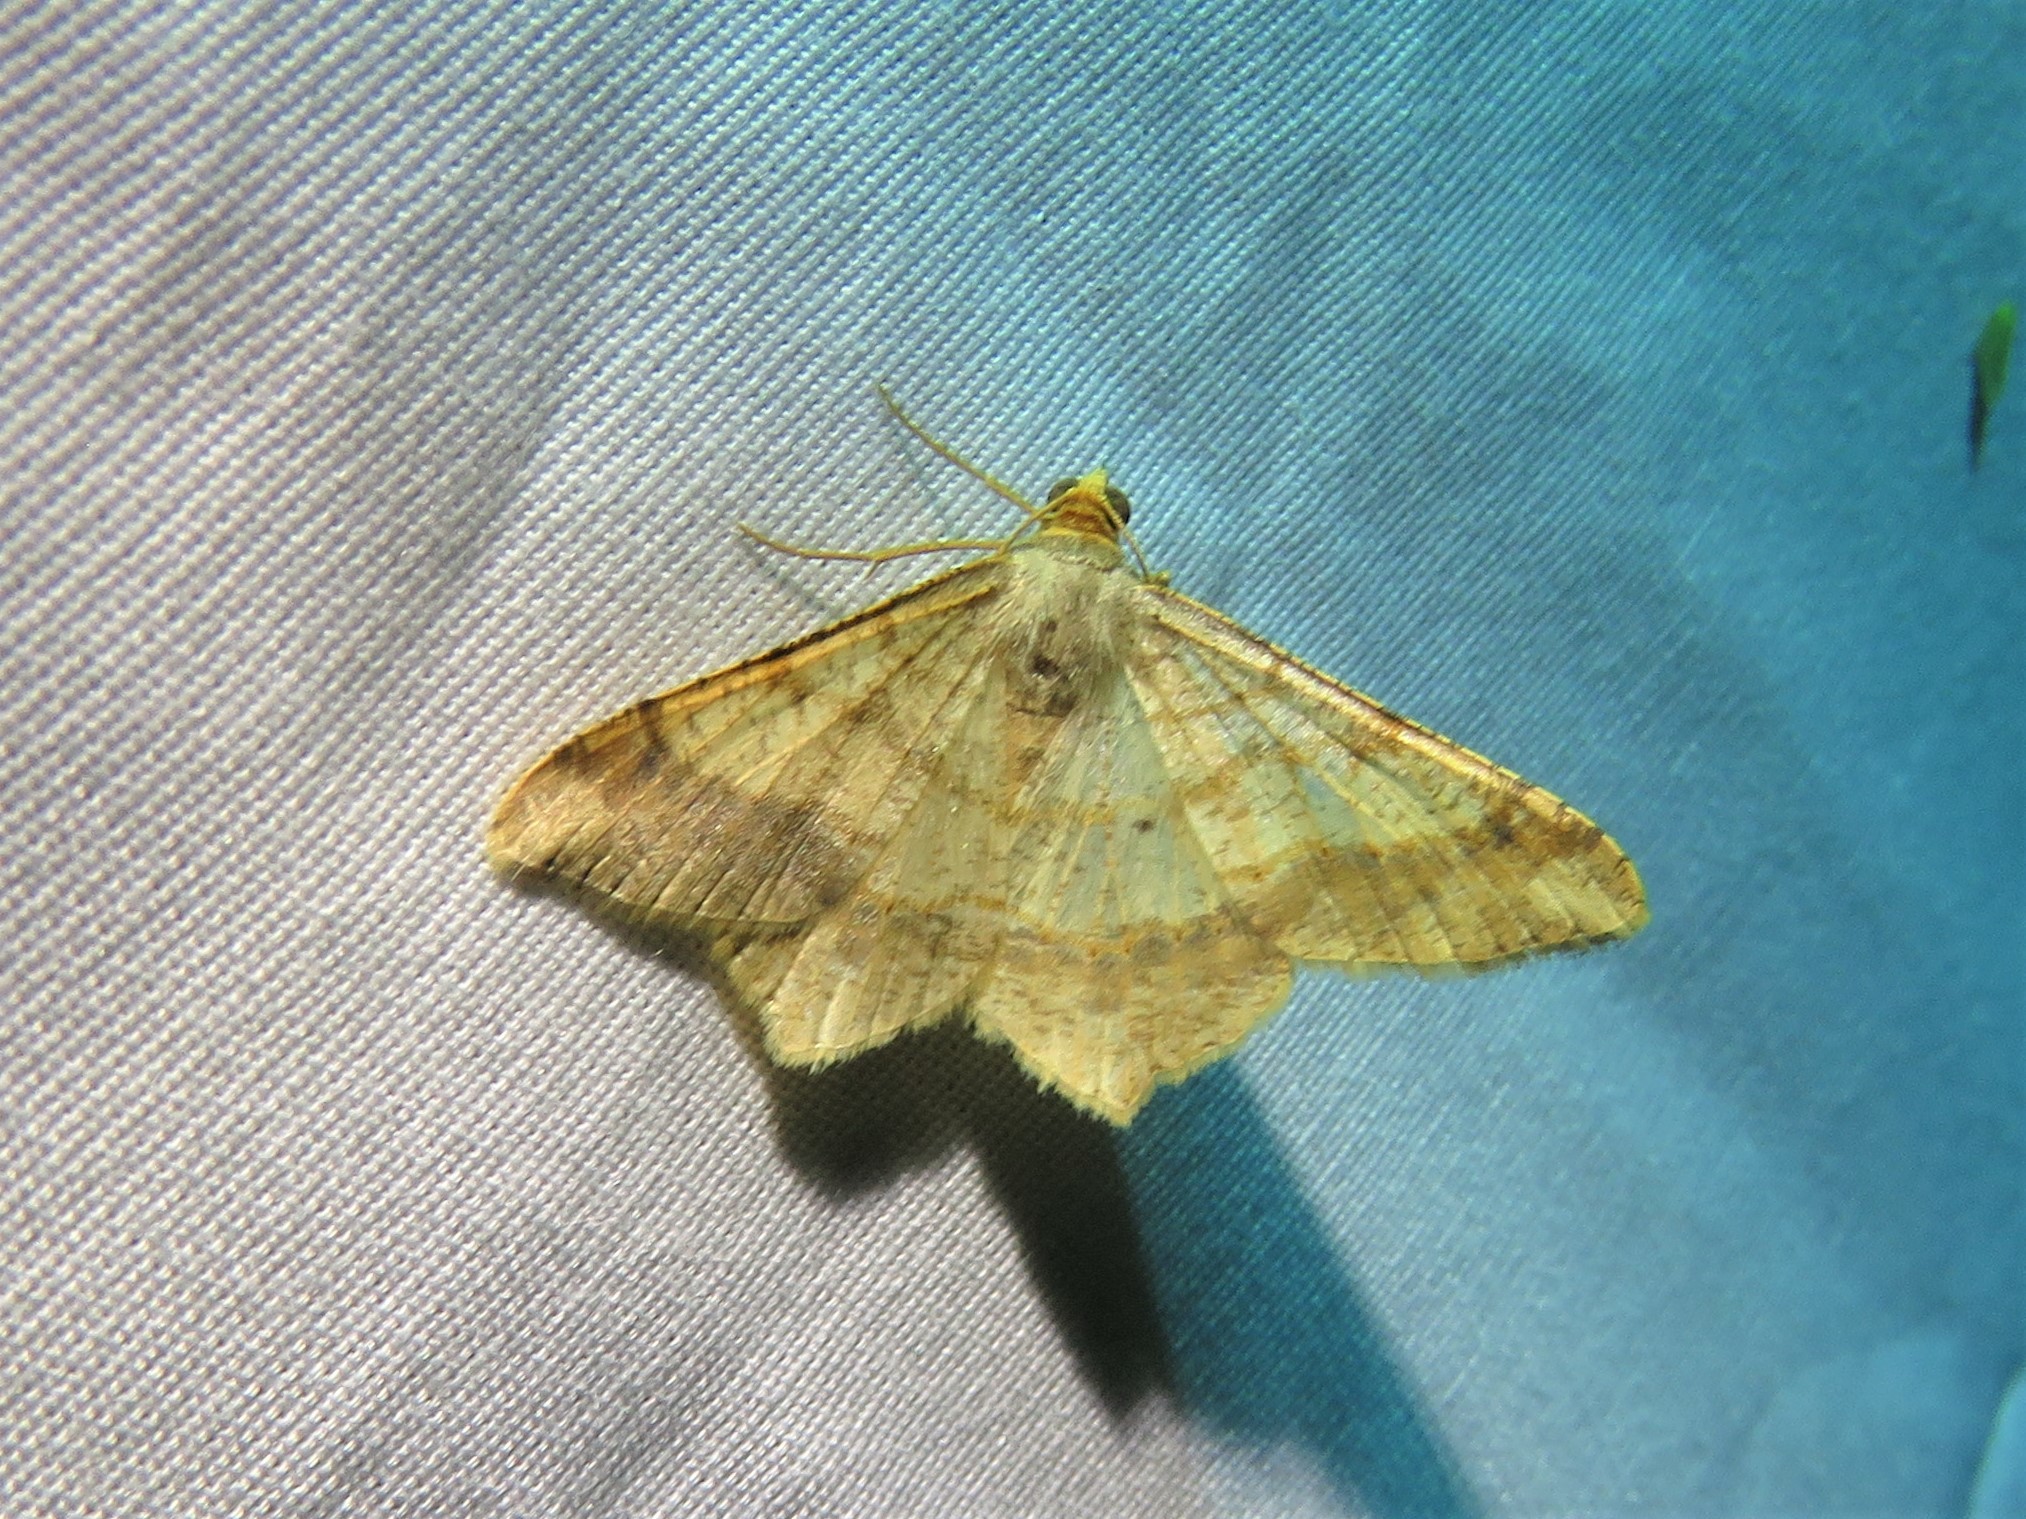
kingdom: Animalia
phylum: Arthropoda
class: Insecta
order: Lepidoptera
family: Geometridae
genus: Macaria
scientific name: Macaria abydata
